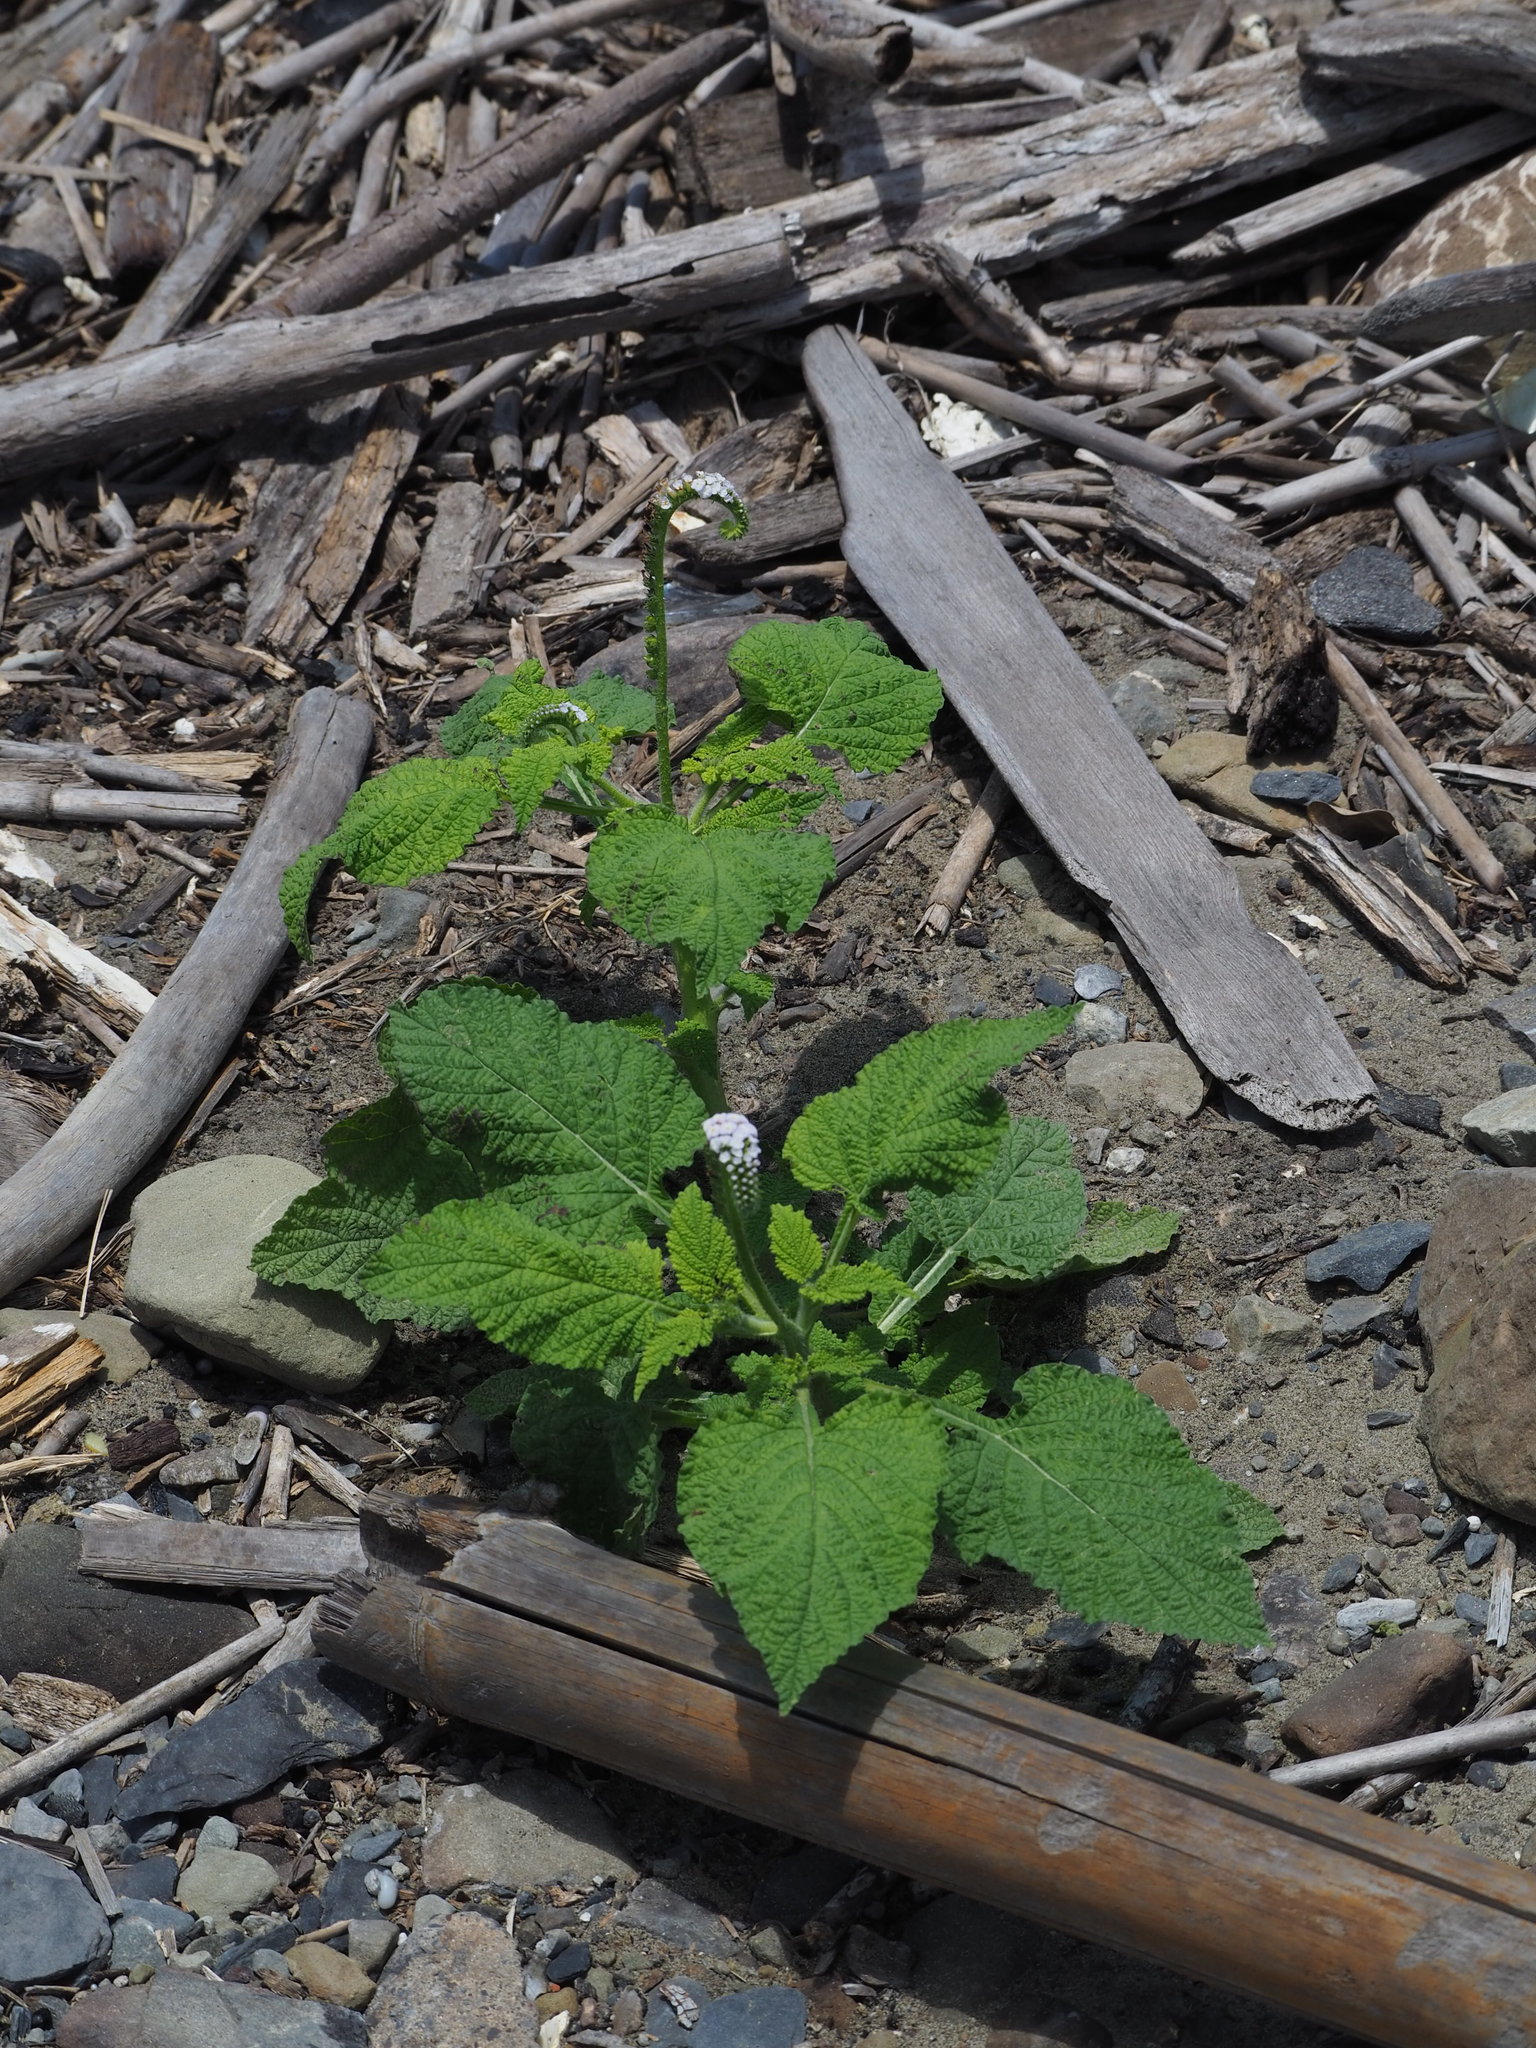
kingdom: Plantae
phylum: Tracheophyta
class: Magnoliopsida
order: Boraginales
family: Heliotropiaceae
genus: Heliotropium
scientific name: Heliotropium indicum
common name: Indian heliotrope
